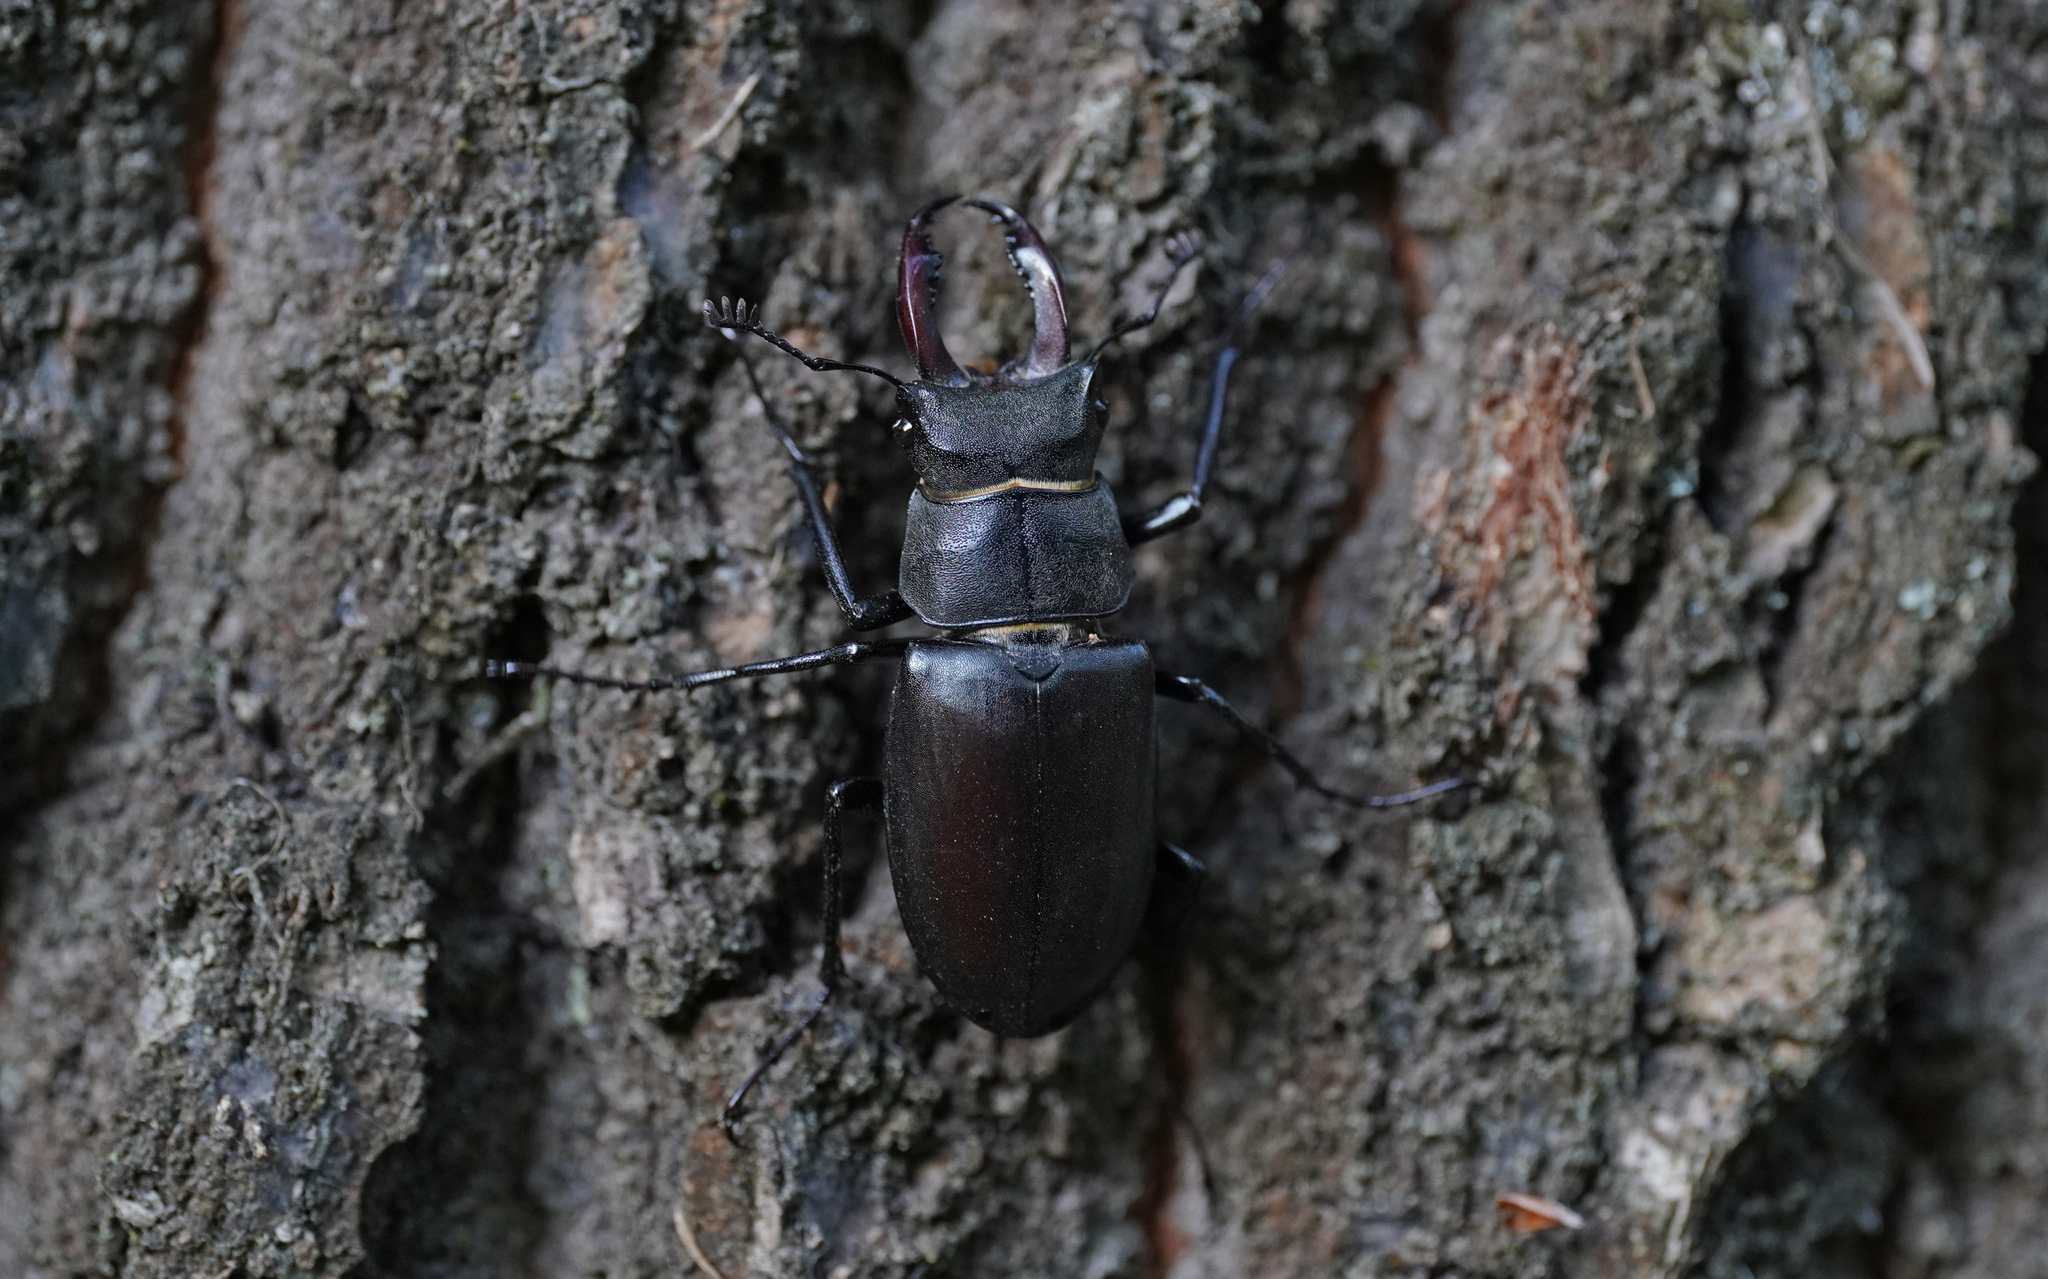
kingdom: Animalia
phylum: Arthropoda
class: Insecta
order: Coleoptera
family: Lucanidae
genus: Lucanus
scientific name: Lucanus cervus
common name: Stag beetle
